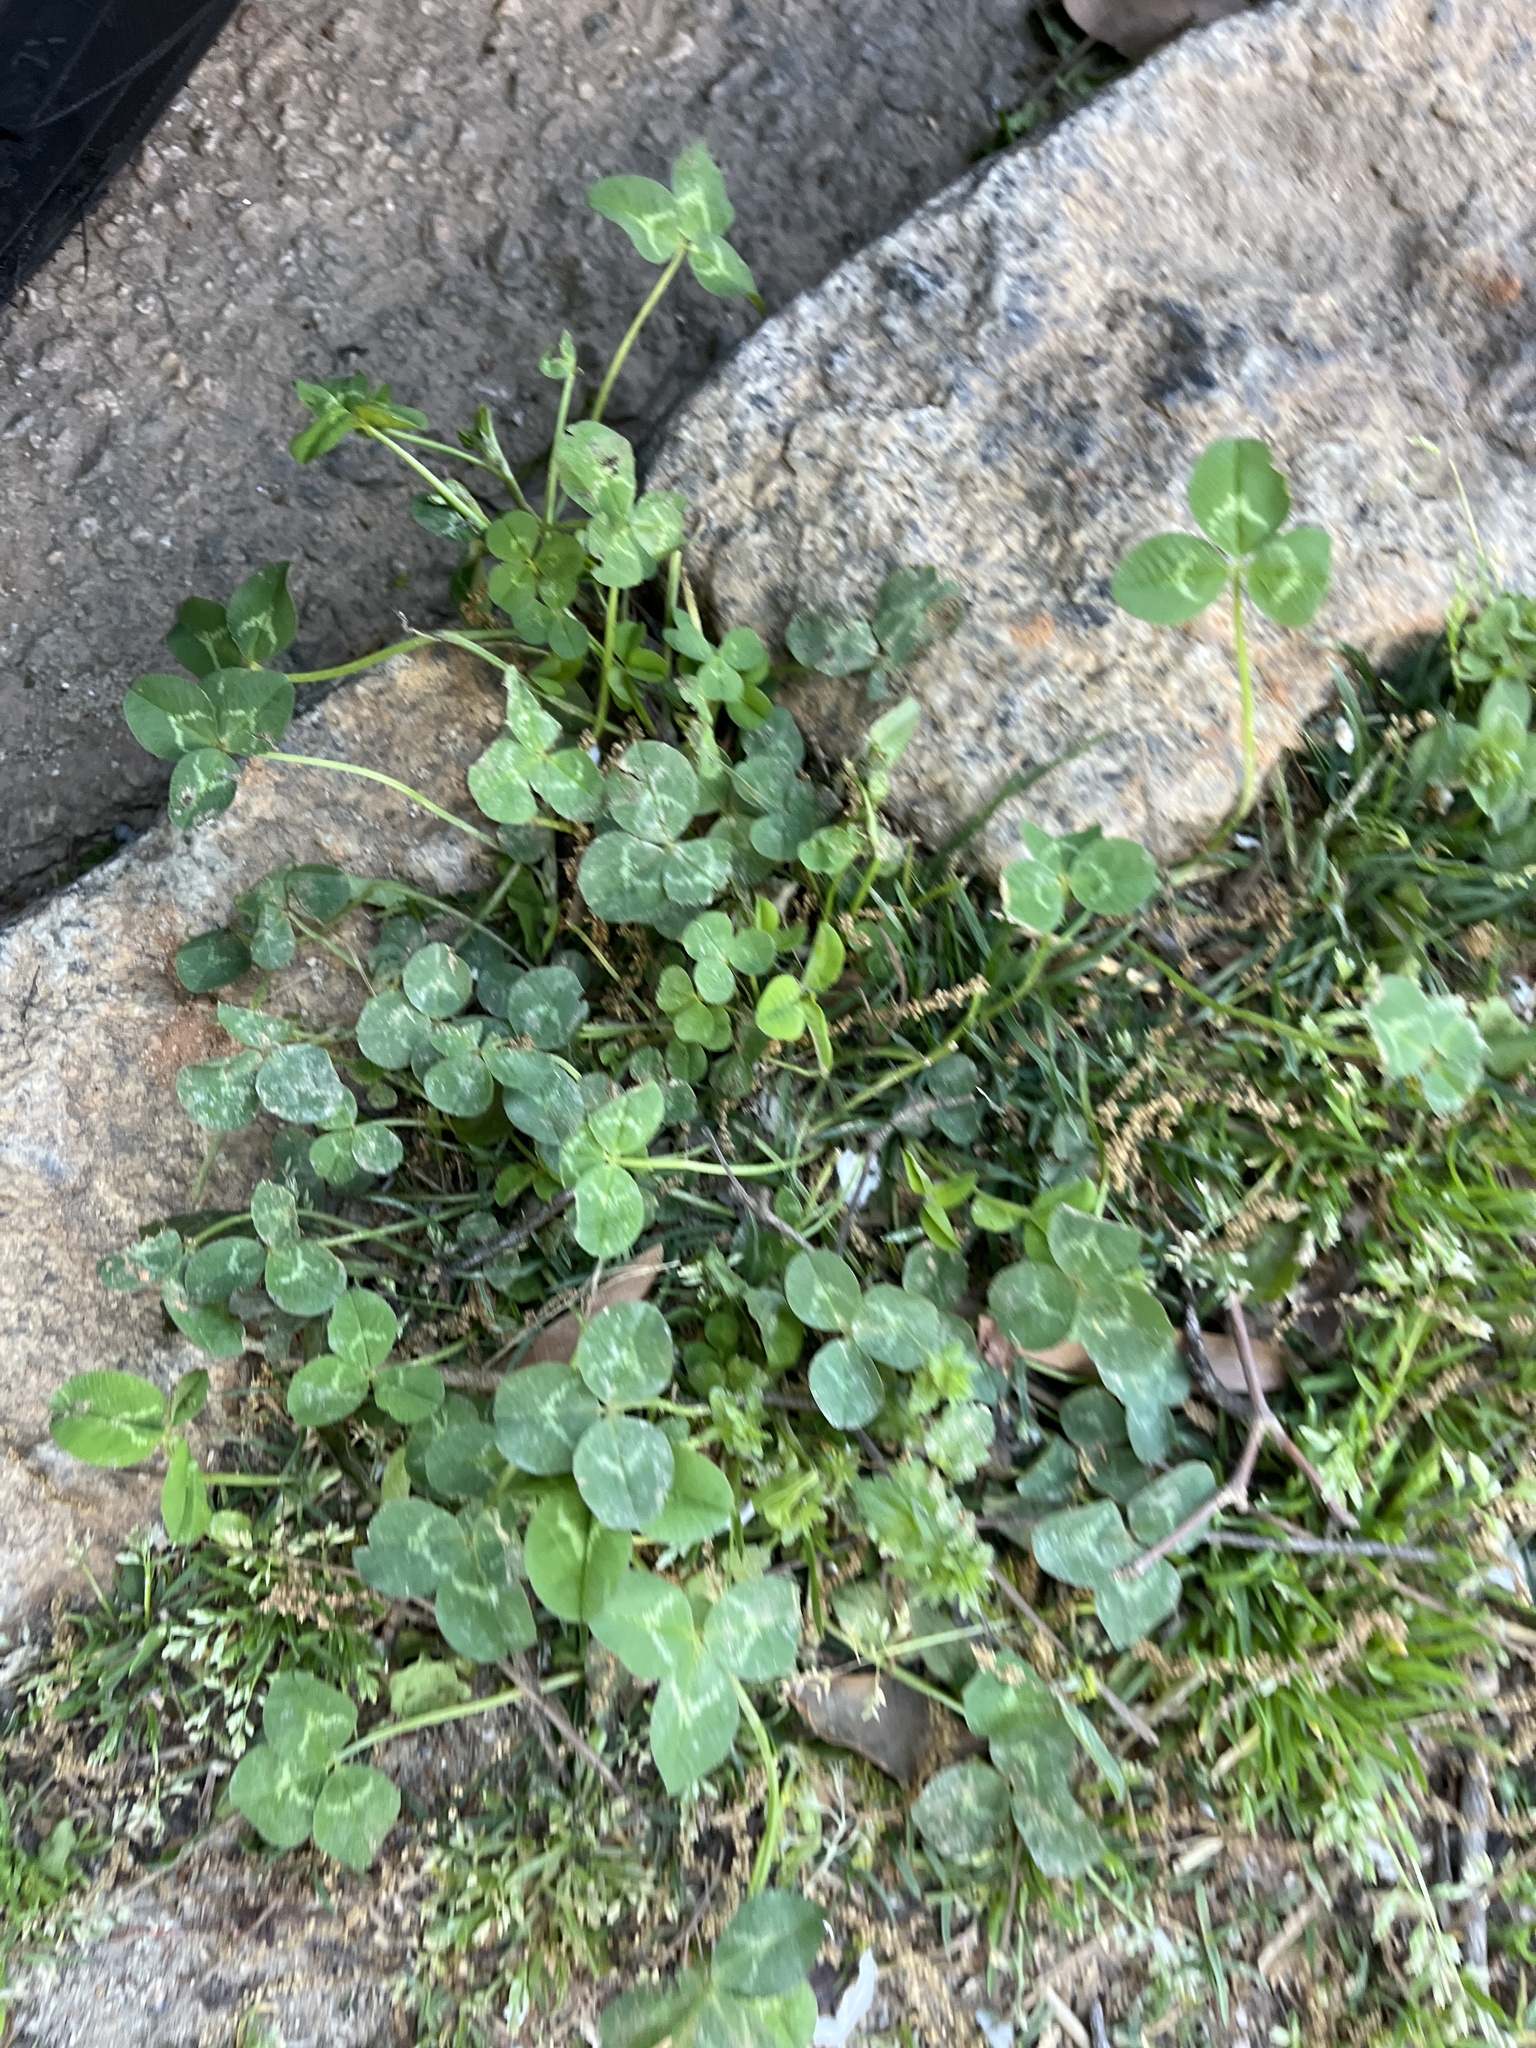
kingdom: Plantae
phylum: Tracheophyta
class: Magnoliopsida
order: Fabales
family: Fabaceae
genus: Trifolium
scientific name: Trifolium repens
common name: White clover
